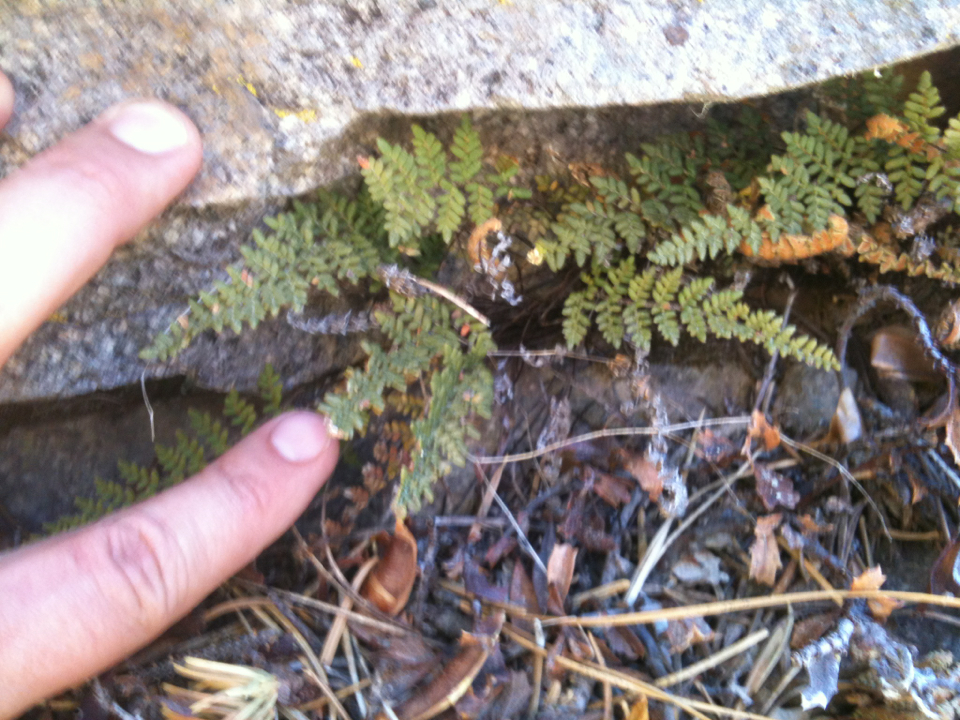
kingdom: Plantae
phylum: Tracheophyta
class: Polypodiopsida
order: Polypodiales
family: Pteridaceae
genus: Myriopteris
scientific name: Myriopteris gracillima
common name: Lace fern
